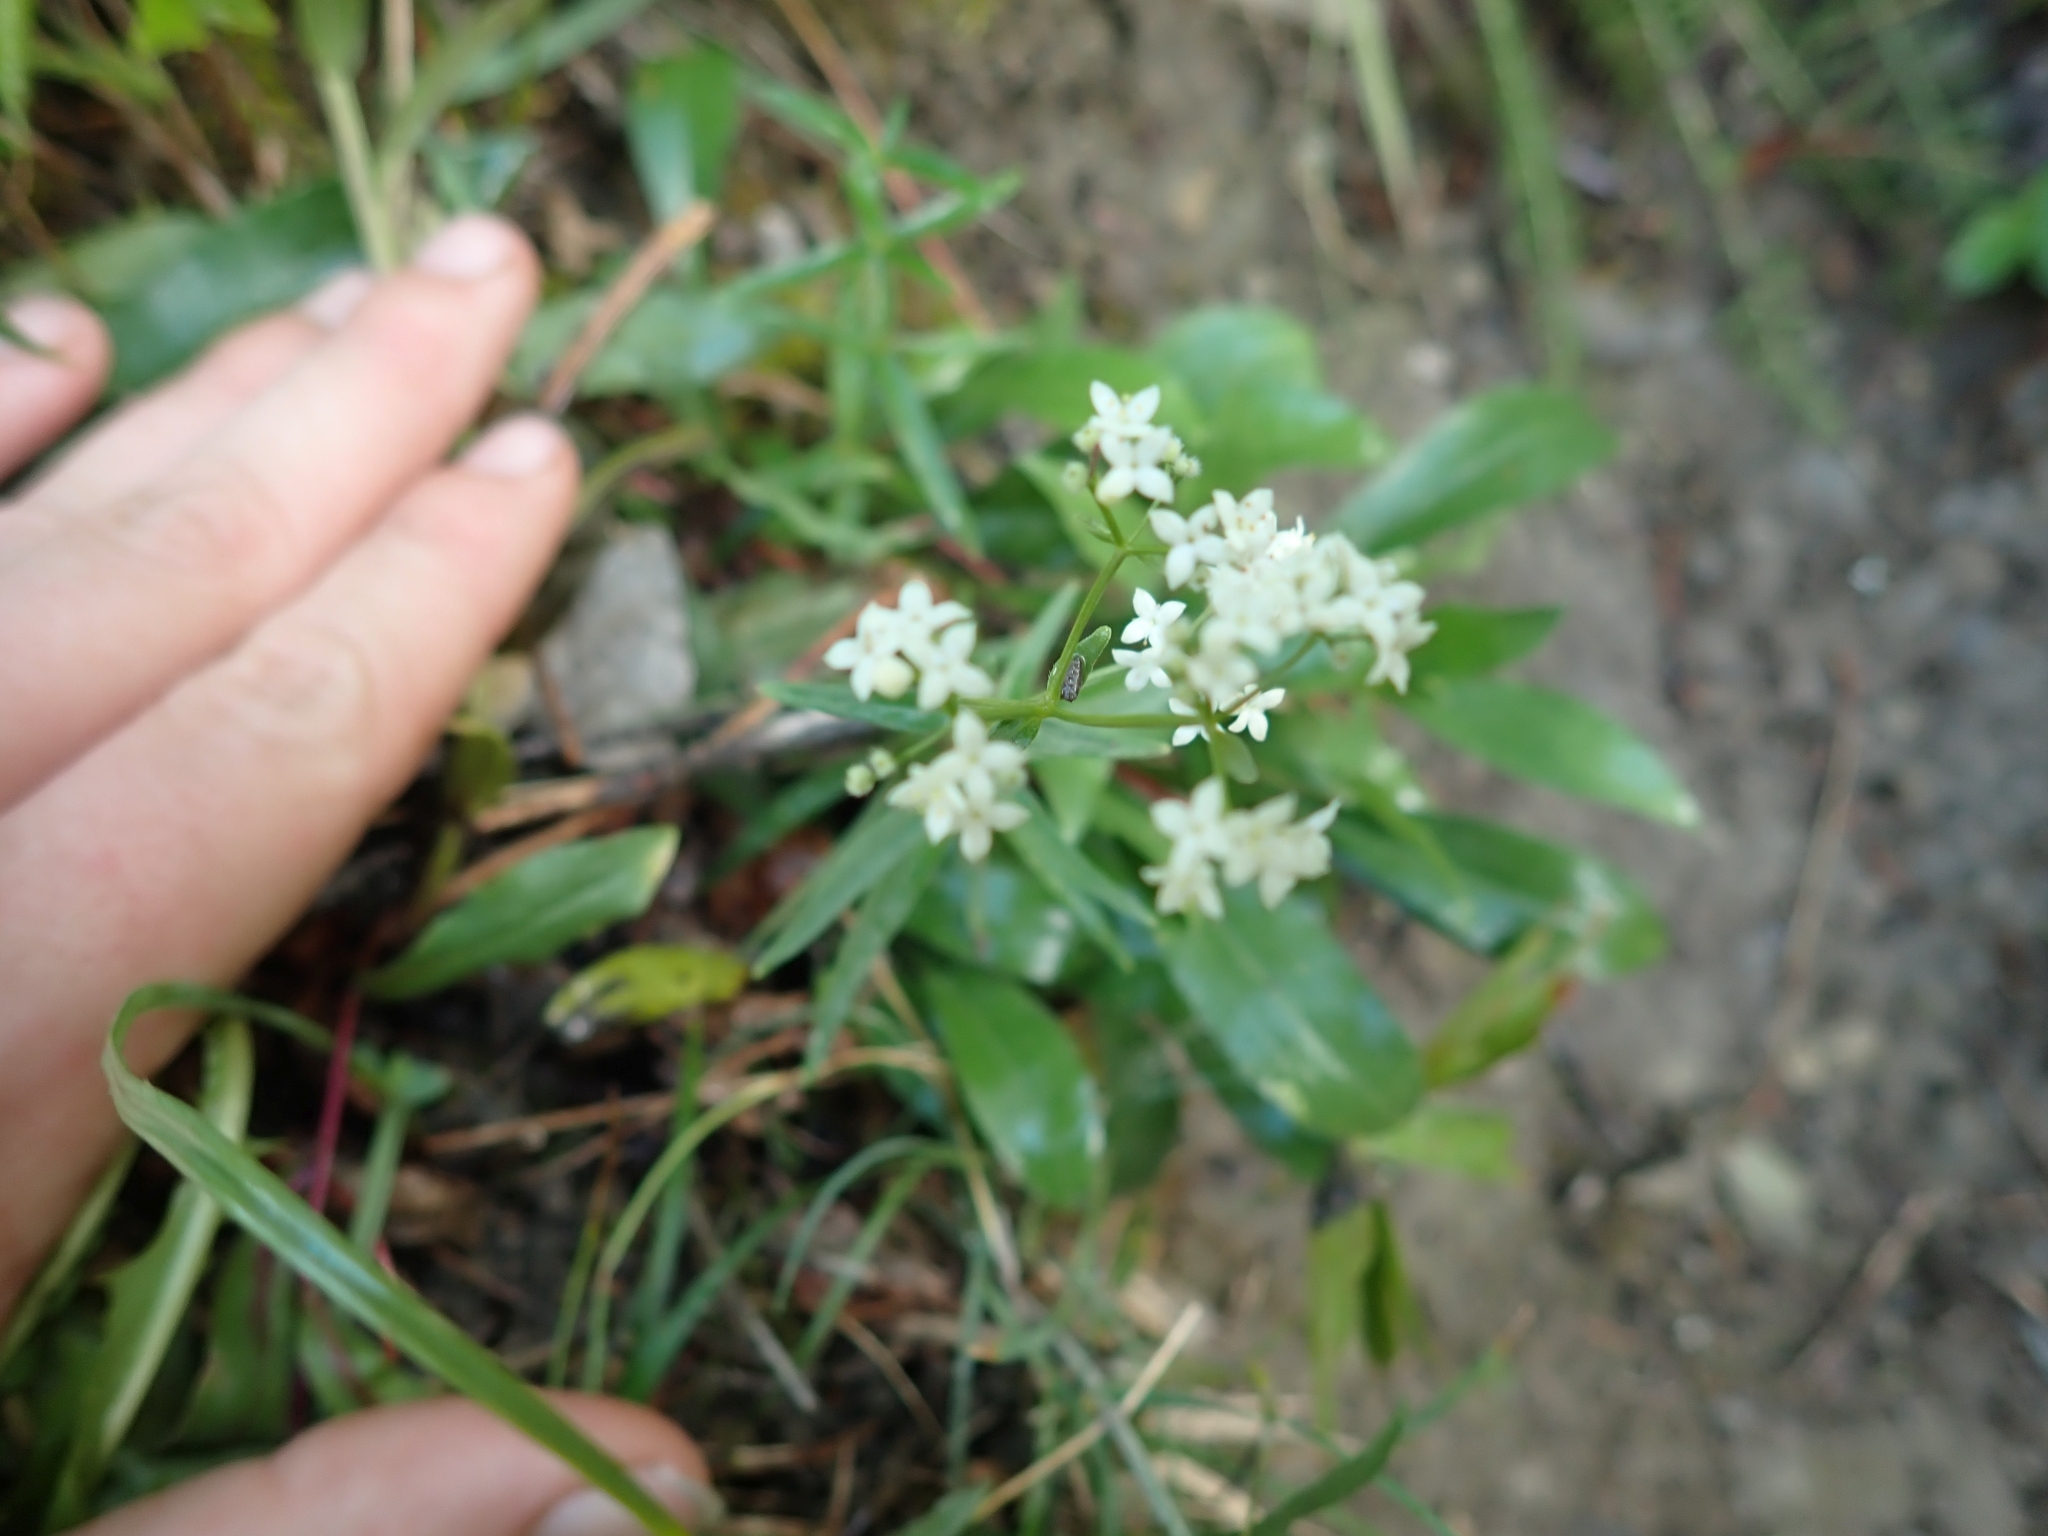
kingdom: Plantae
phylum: Tracheophyta
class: Magnoliopsida
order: Gentianales
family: Rubiaceae
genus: Galium
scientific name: Galium boreale
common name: Northern bedstraw
